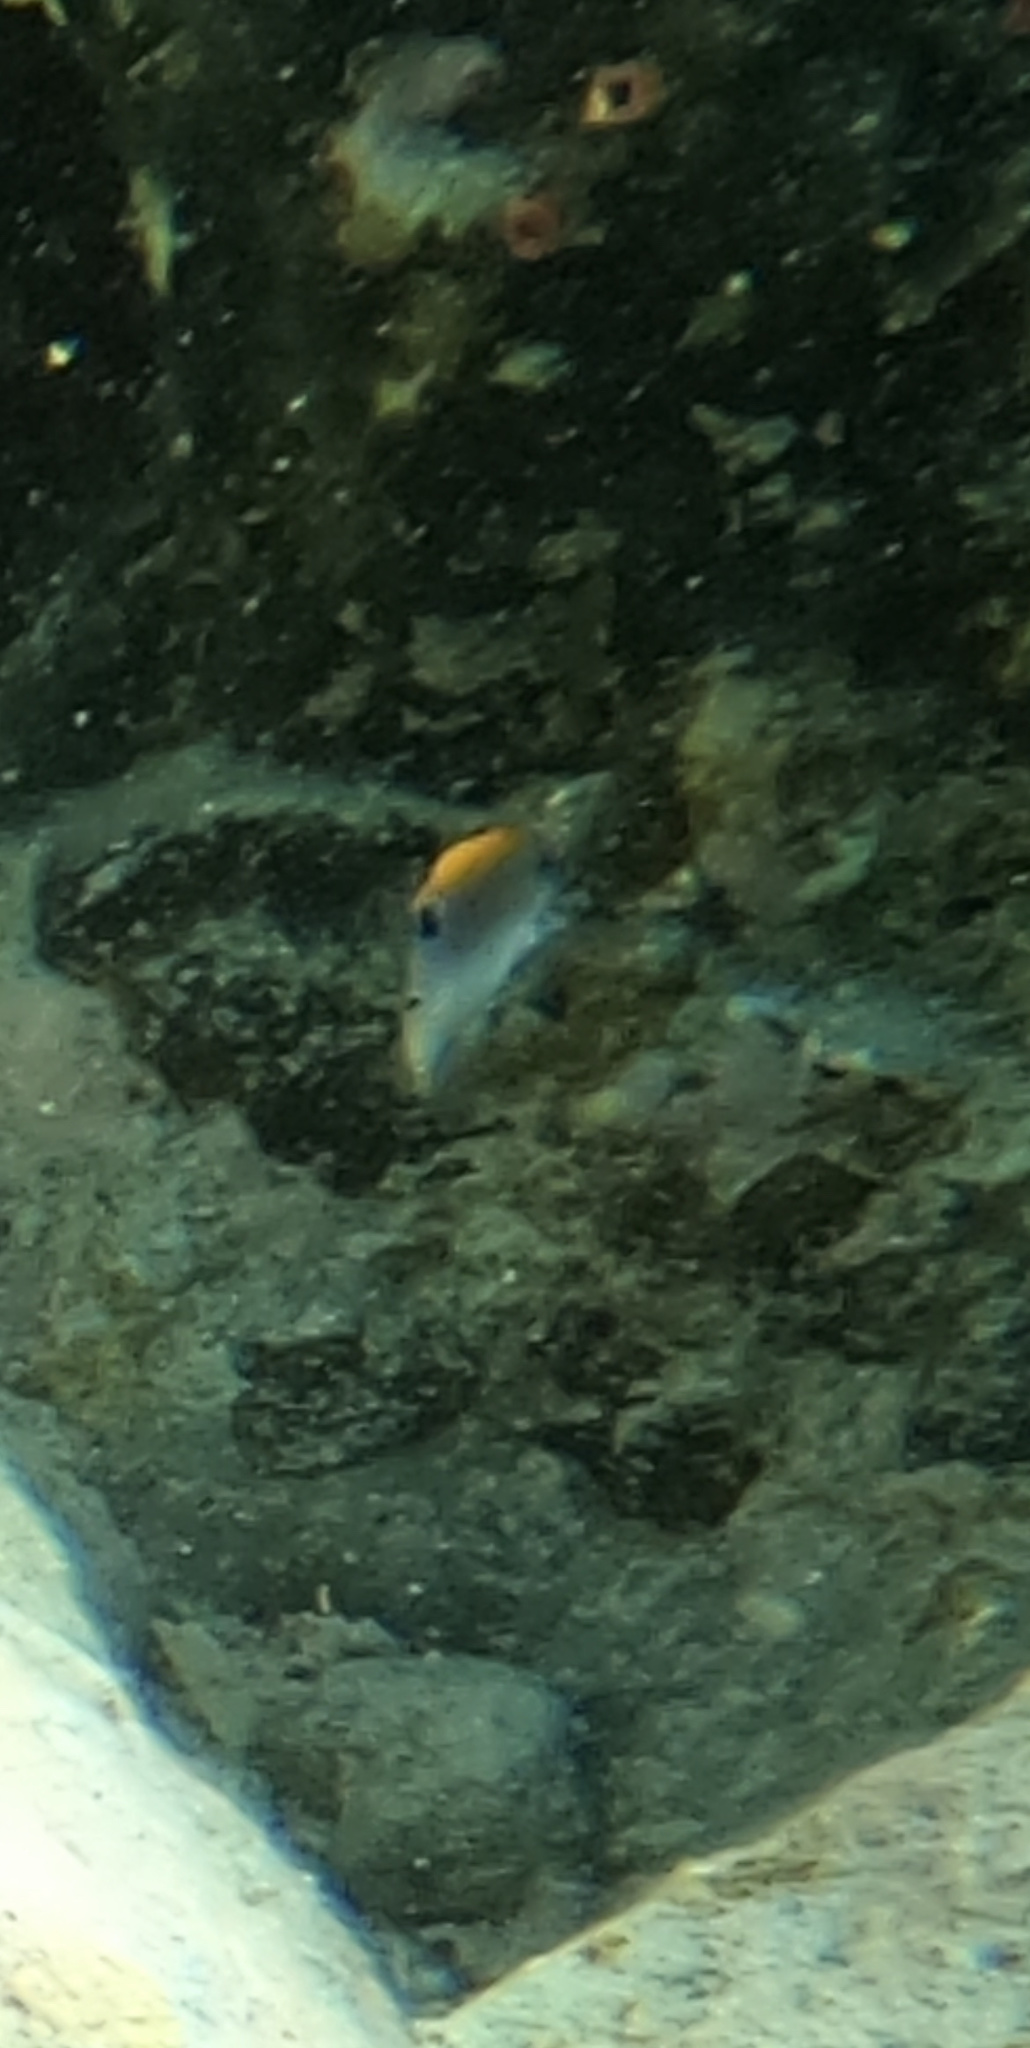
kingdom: Animalia
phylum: Chordata
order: Perciformes
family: Pomacentridae
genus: Stegastes
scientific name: Stegastes adustus
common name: Dusky damselfish
